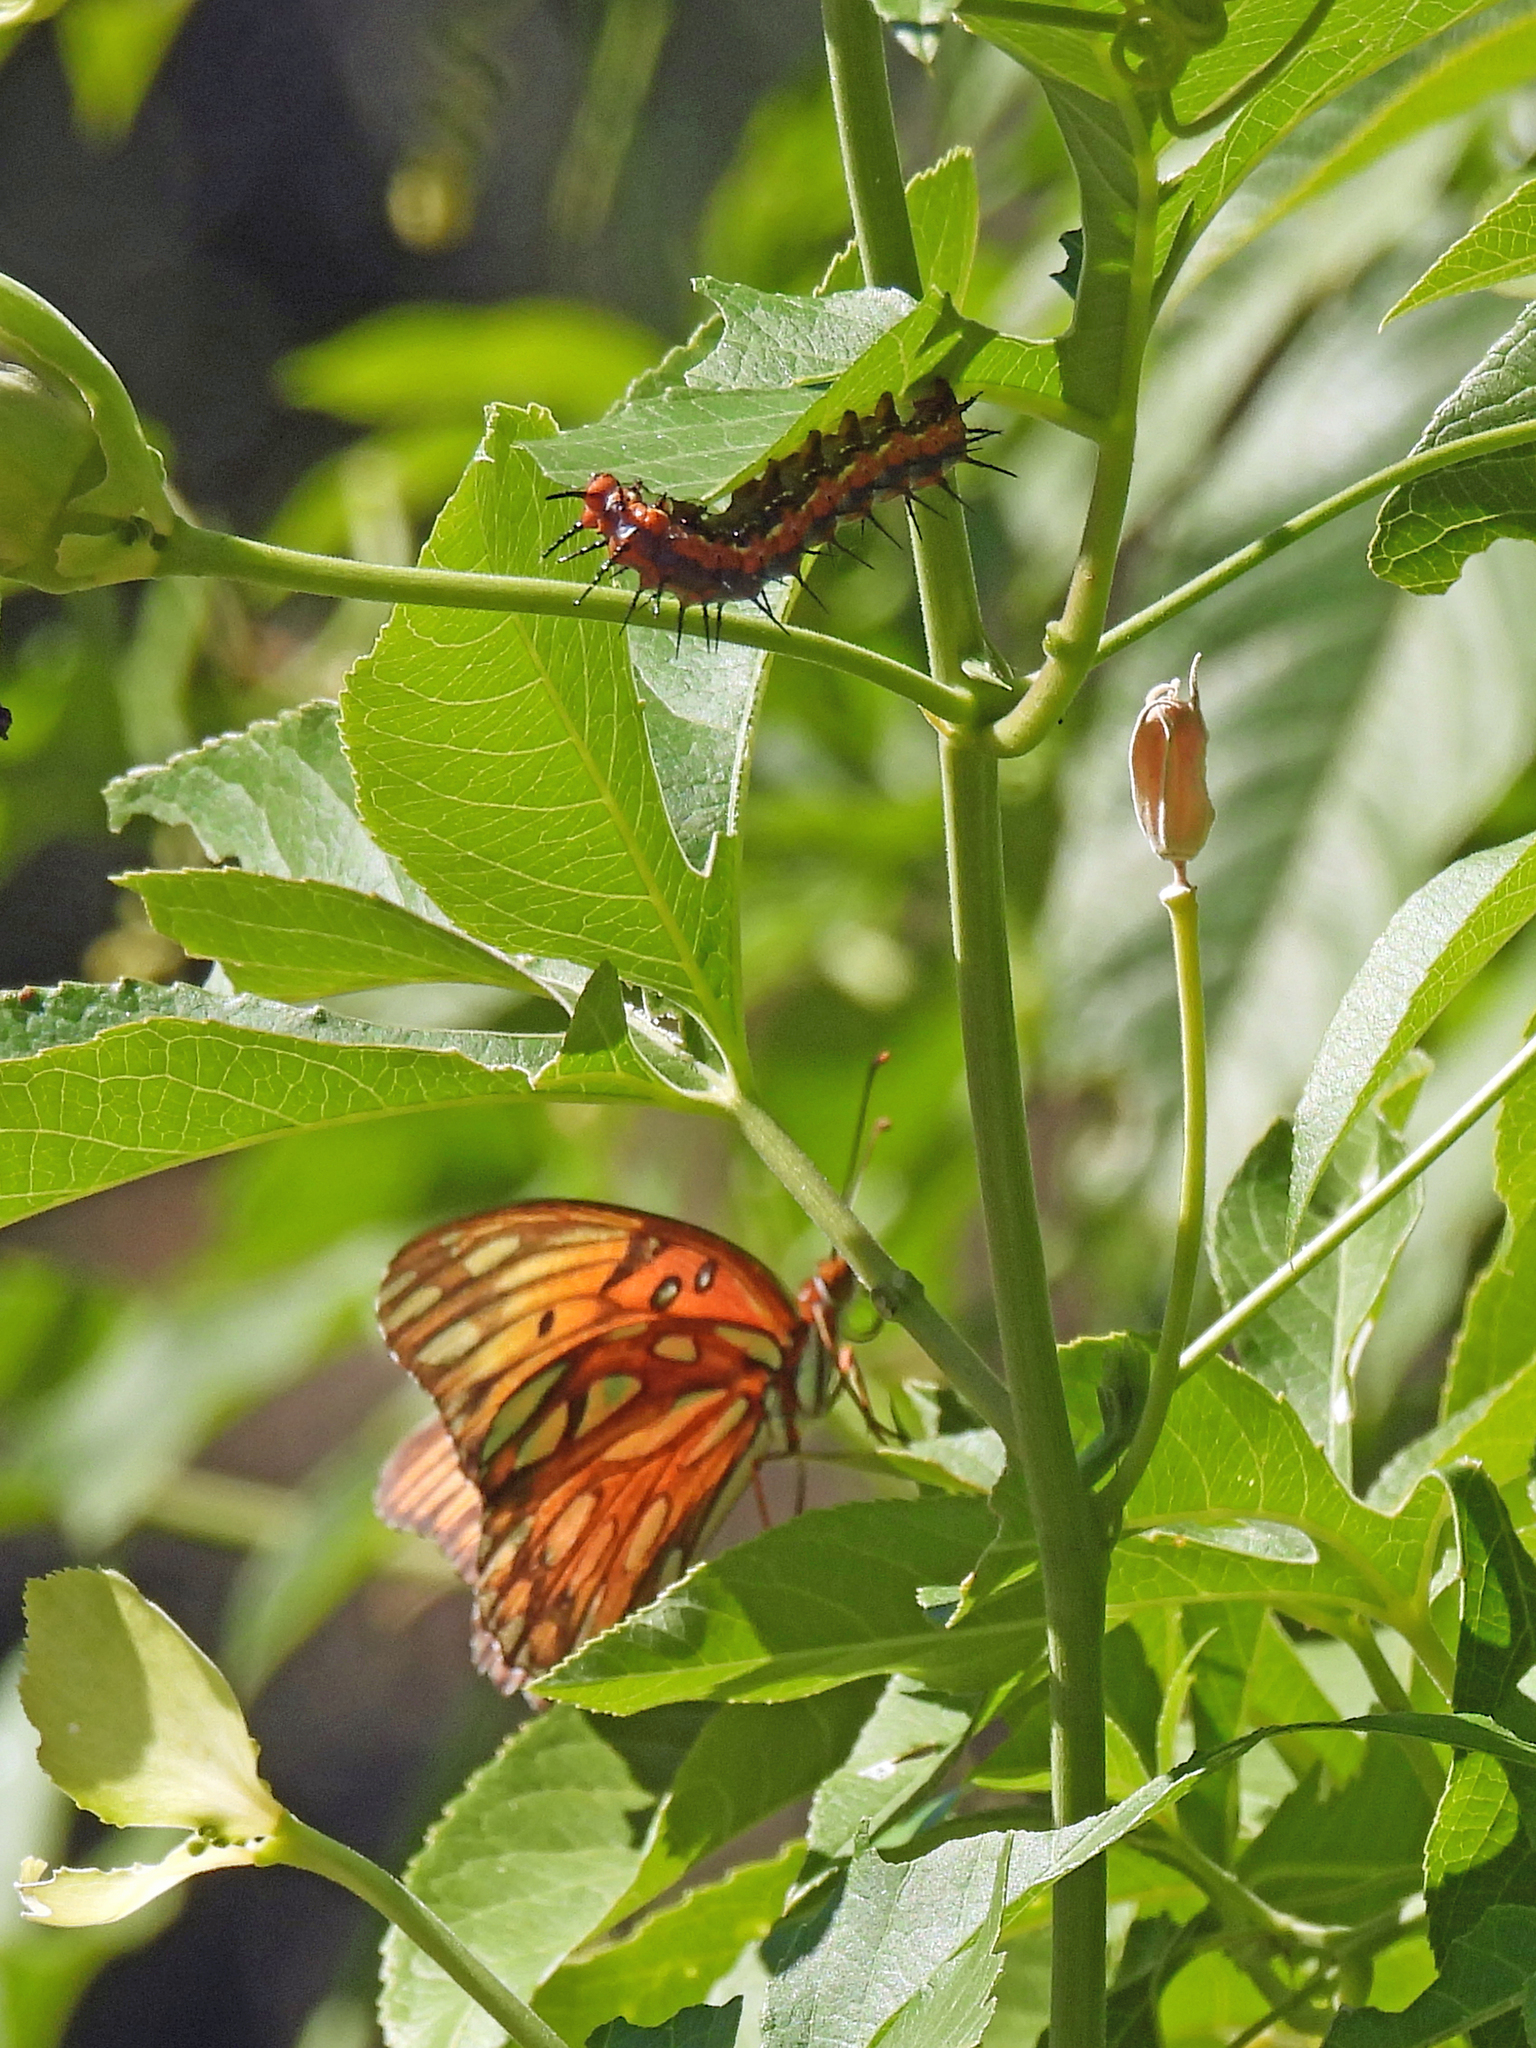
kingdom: Animalia
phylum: Arthropoda
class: Insecta
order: Lepidoptera
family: Nymphalidae
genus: Dione
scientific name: Dione vanillae
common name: Gulf fritillary
